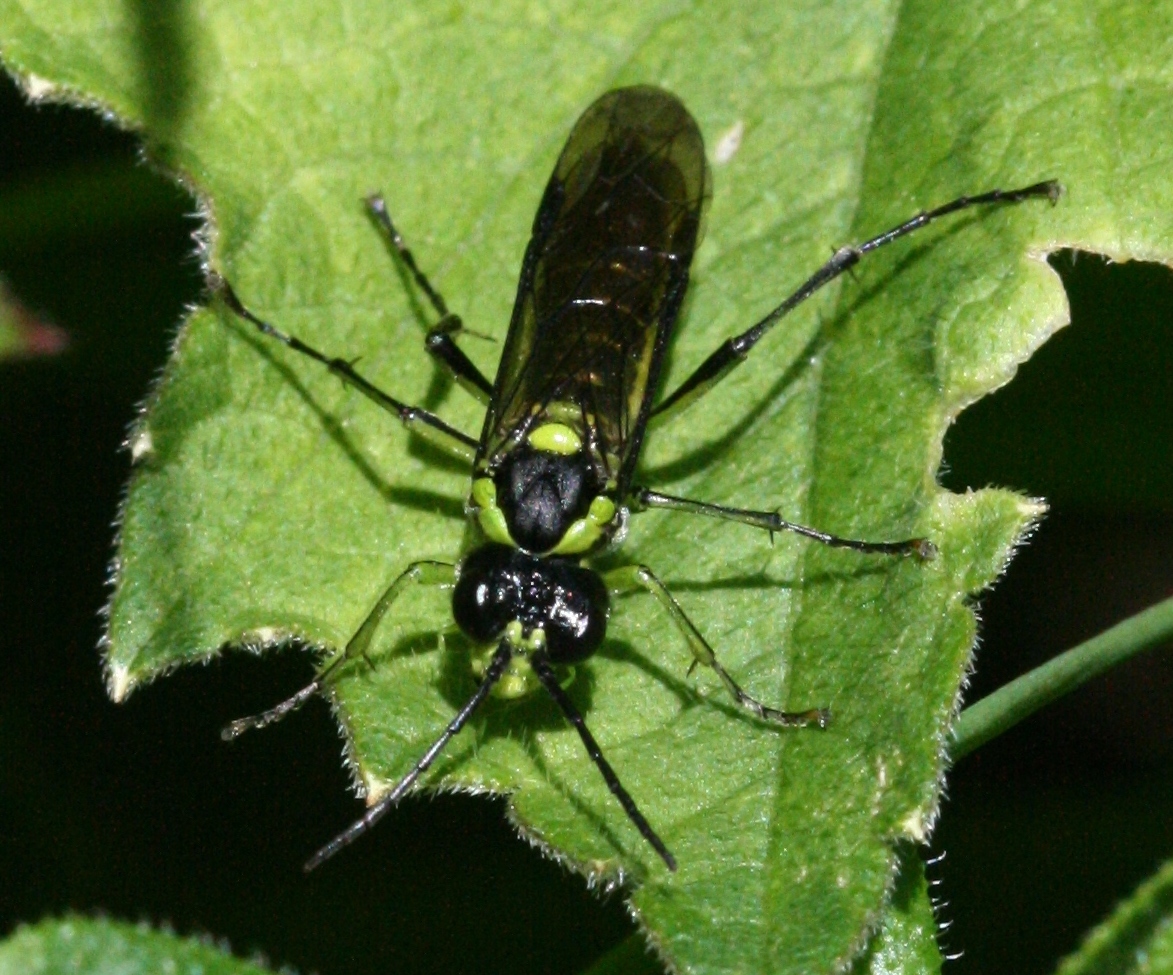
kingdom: Animalia
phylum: Arthropoda
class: Insecta
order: Hymenoptera
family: Tenthredinidae
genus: Tenthredo
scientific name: Tenthredo mesomela
